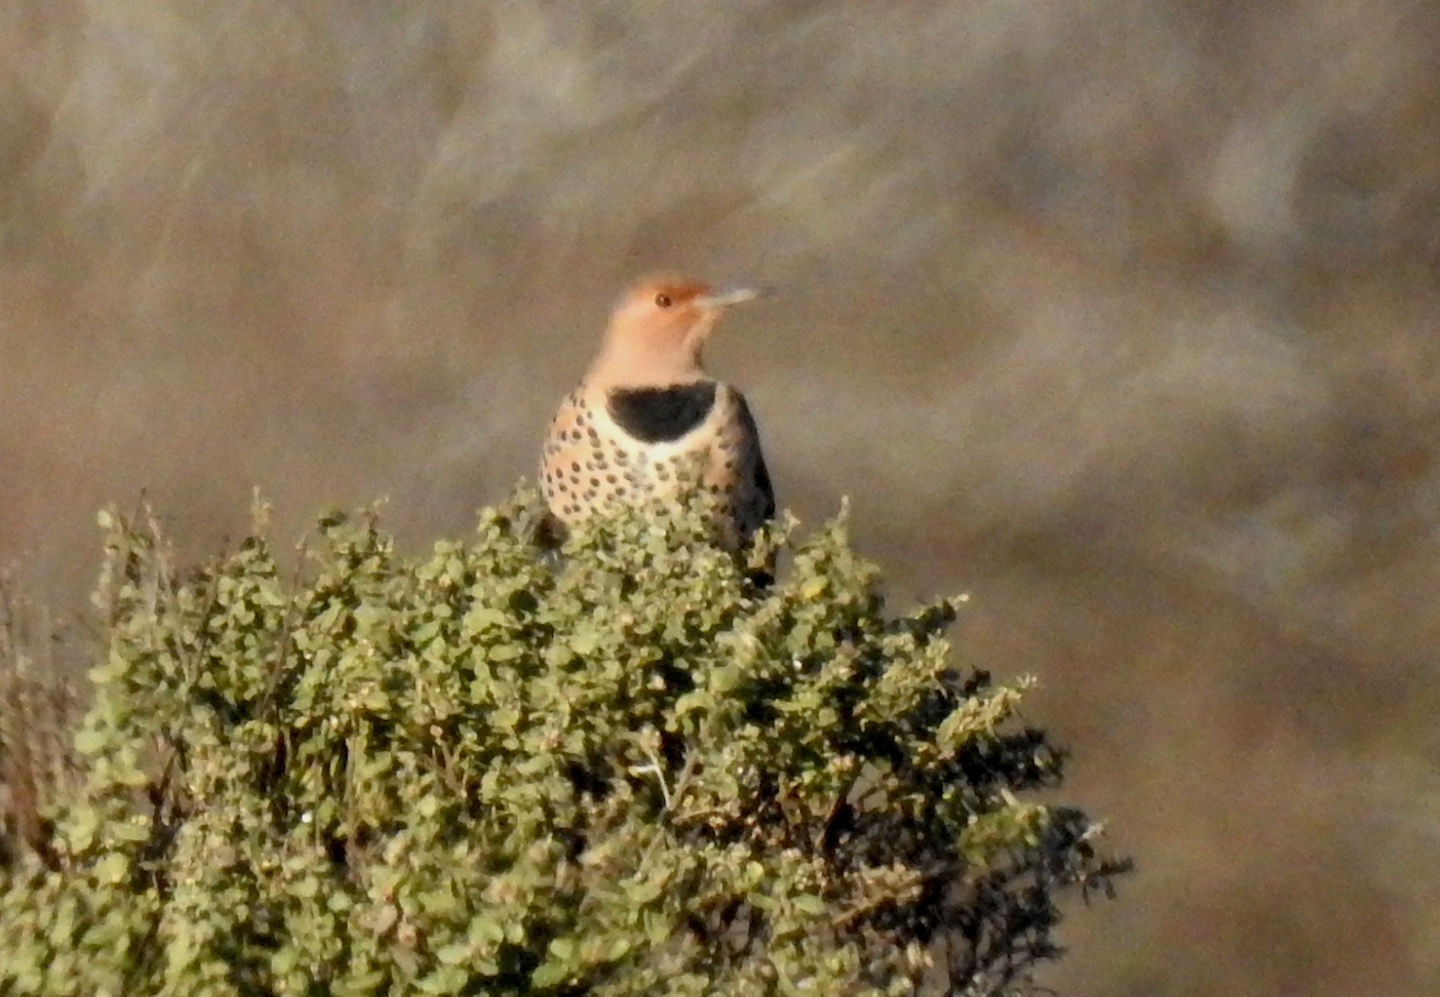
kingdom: Animalia
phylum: Chordata
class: Aves
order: Piciformes
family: Picidae
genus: Colaptes
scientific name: Colaptes
